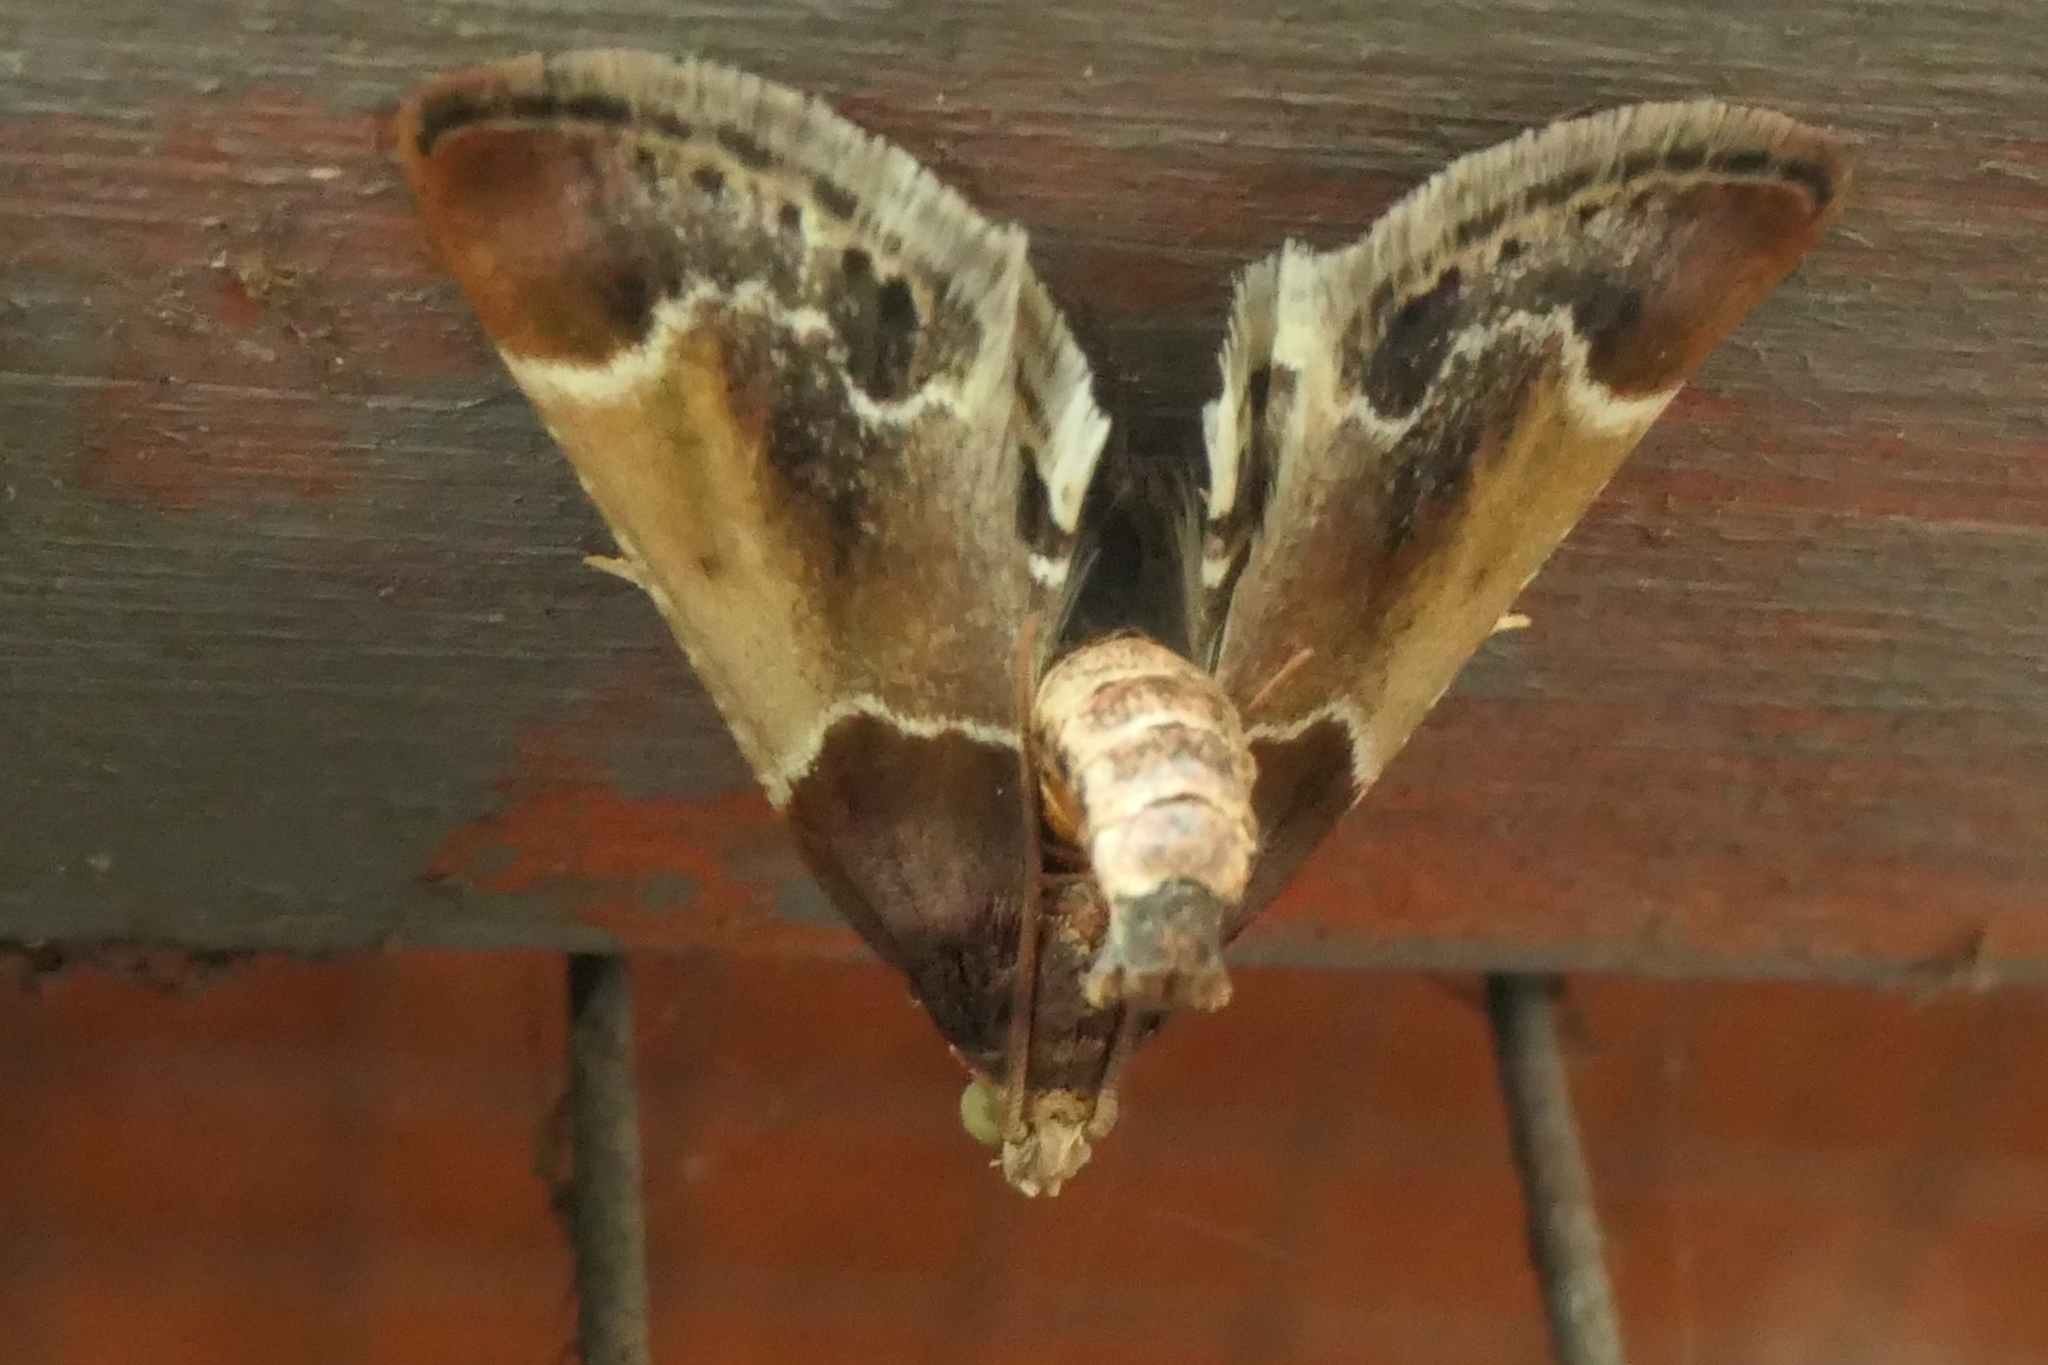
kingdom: Animalia
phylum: Arthropoda
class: Insecta
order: Lepidoptera
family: Pyralidae
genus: Pyralis
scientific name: Pyralis farinalis
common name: Meal moth
